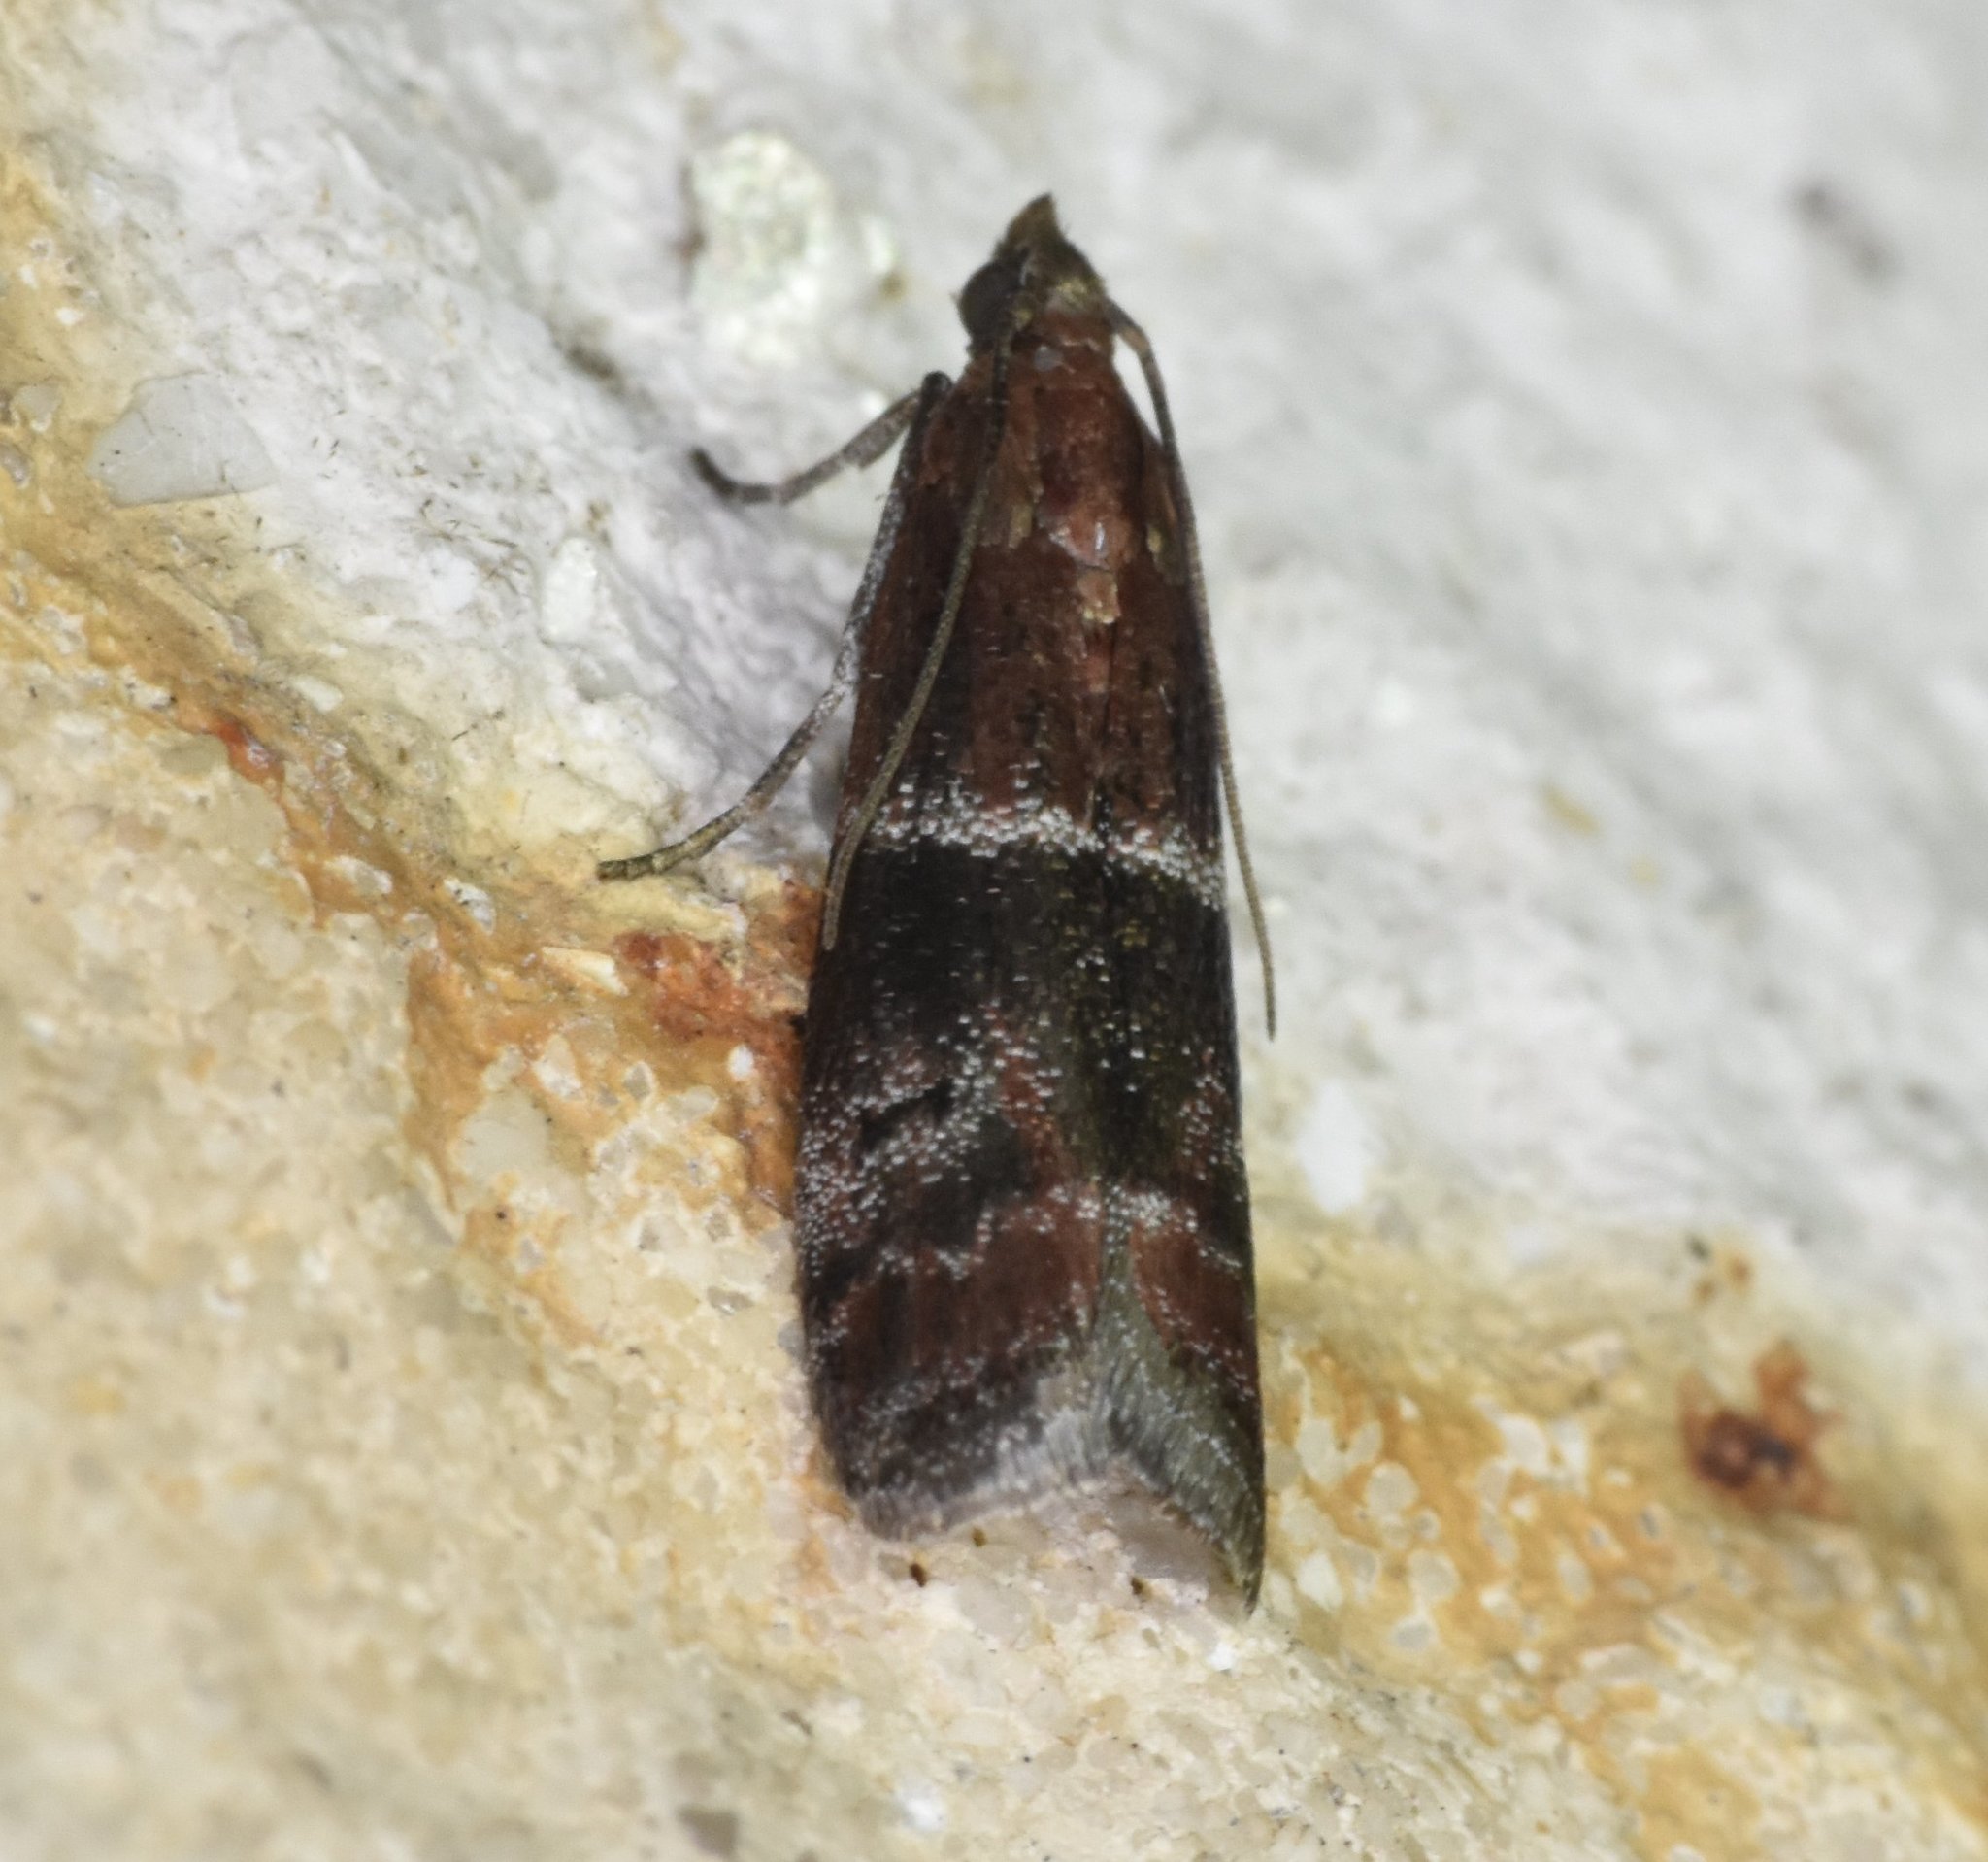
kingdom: Animalia
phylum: Arthropoda
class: Insecta
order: Lepidoptera
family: Pyralidae
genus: Moodna
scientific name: Moodna ostrinella
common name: Darker moodna moth
